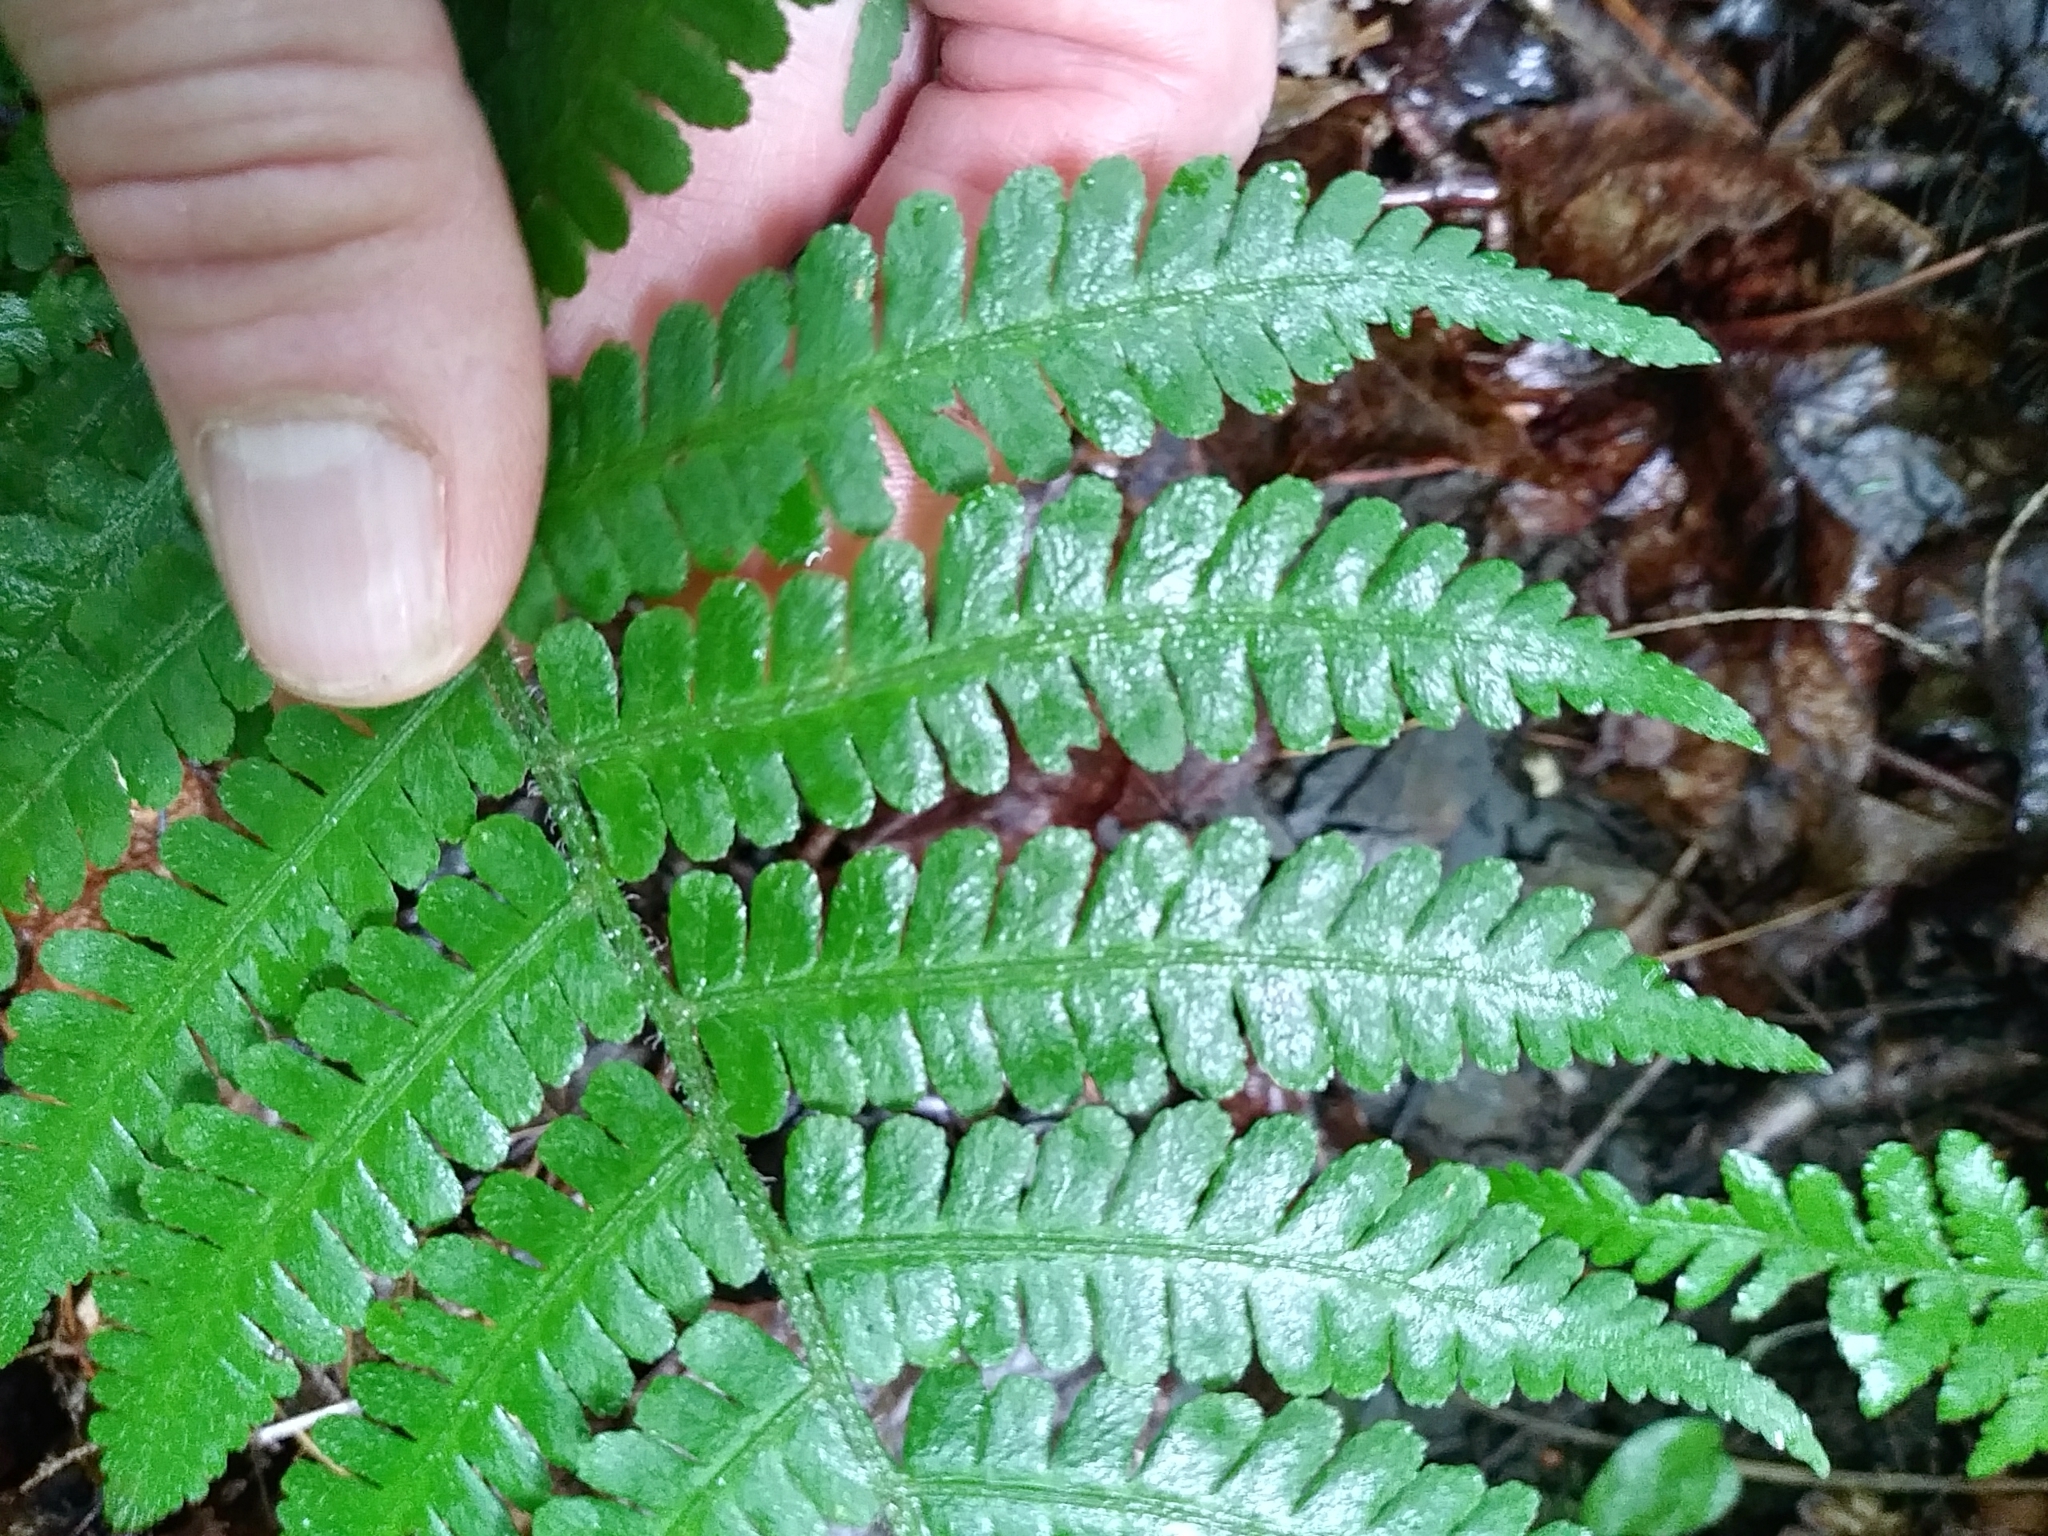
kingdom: Plantae
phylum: Tracheophyta
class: Polypodiopsida
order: Polypodiales
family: Athyriaceae
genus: Deparia
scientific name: Deparia acrostichoides
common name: Silver false spleenwort
